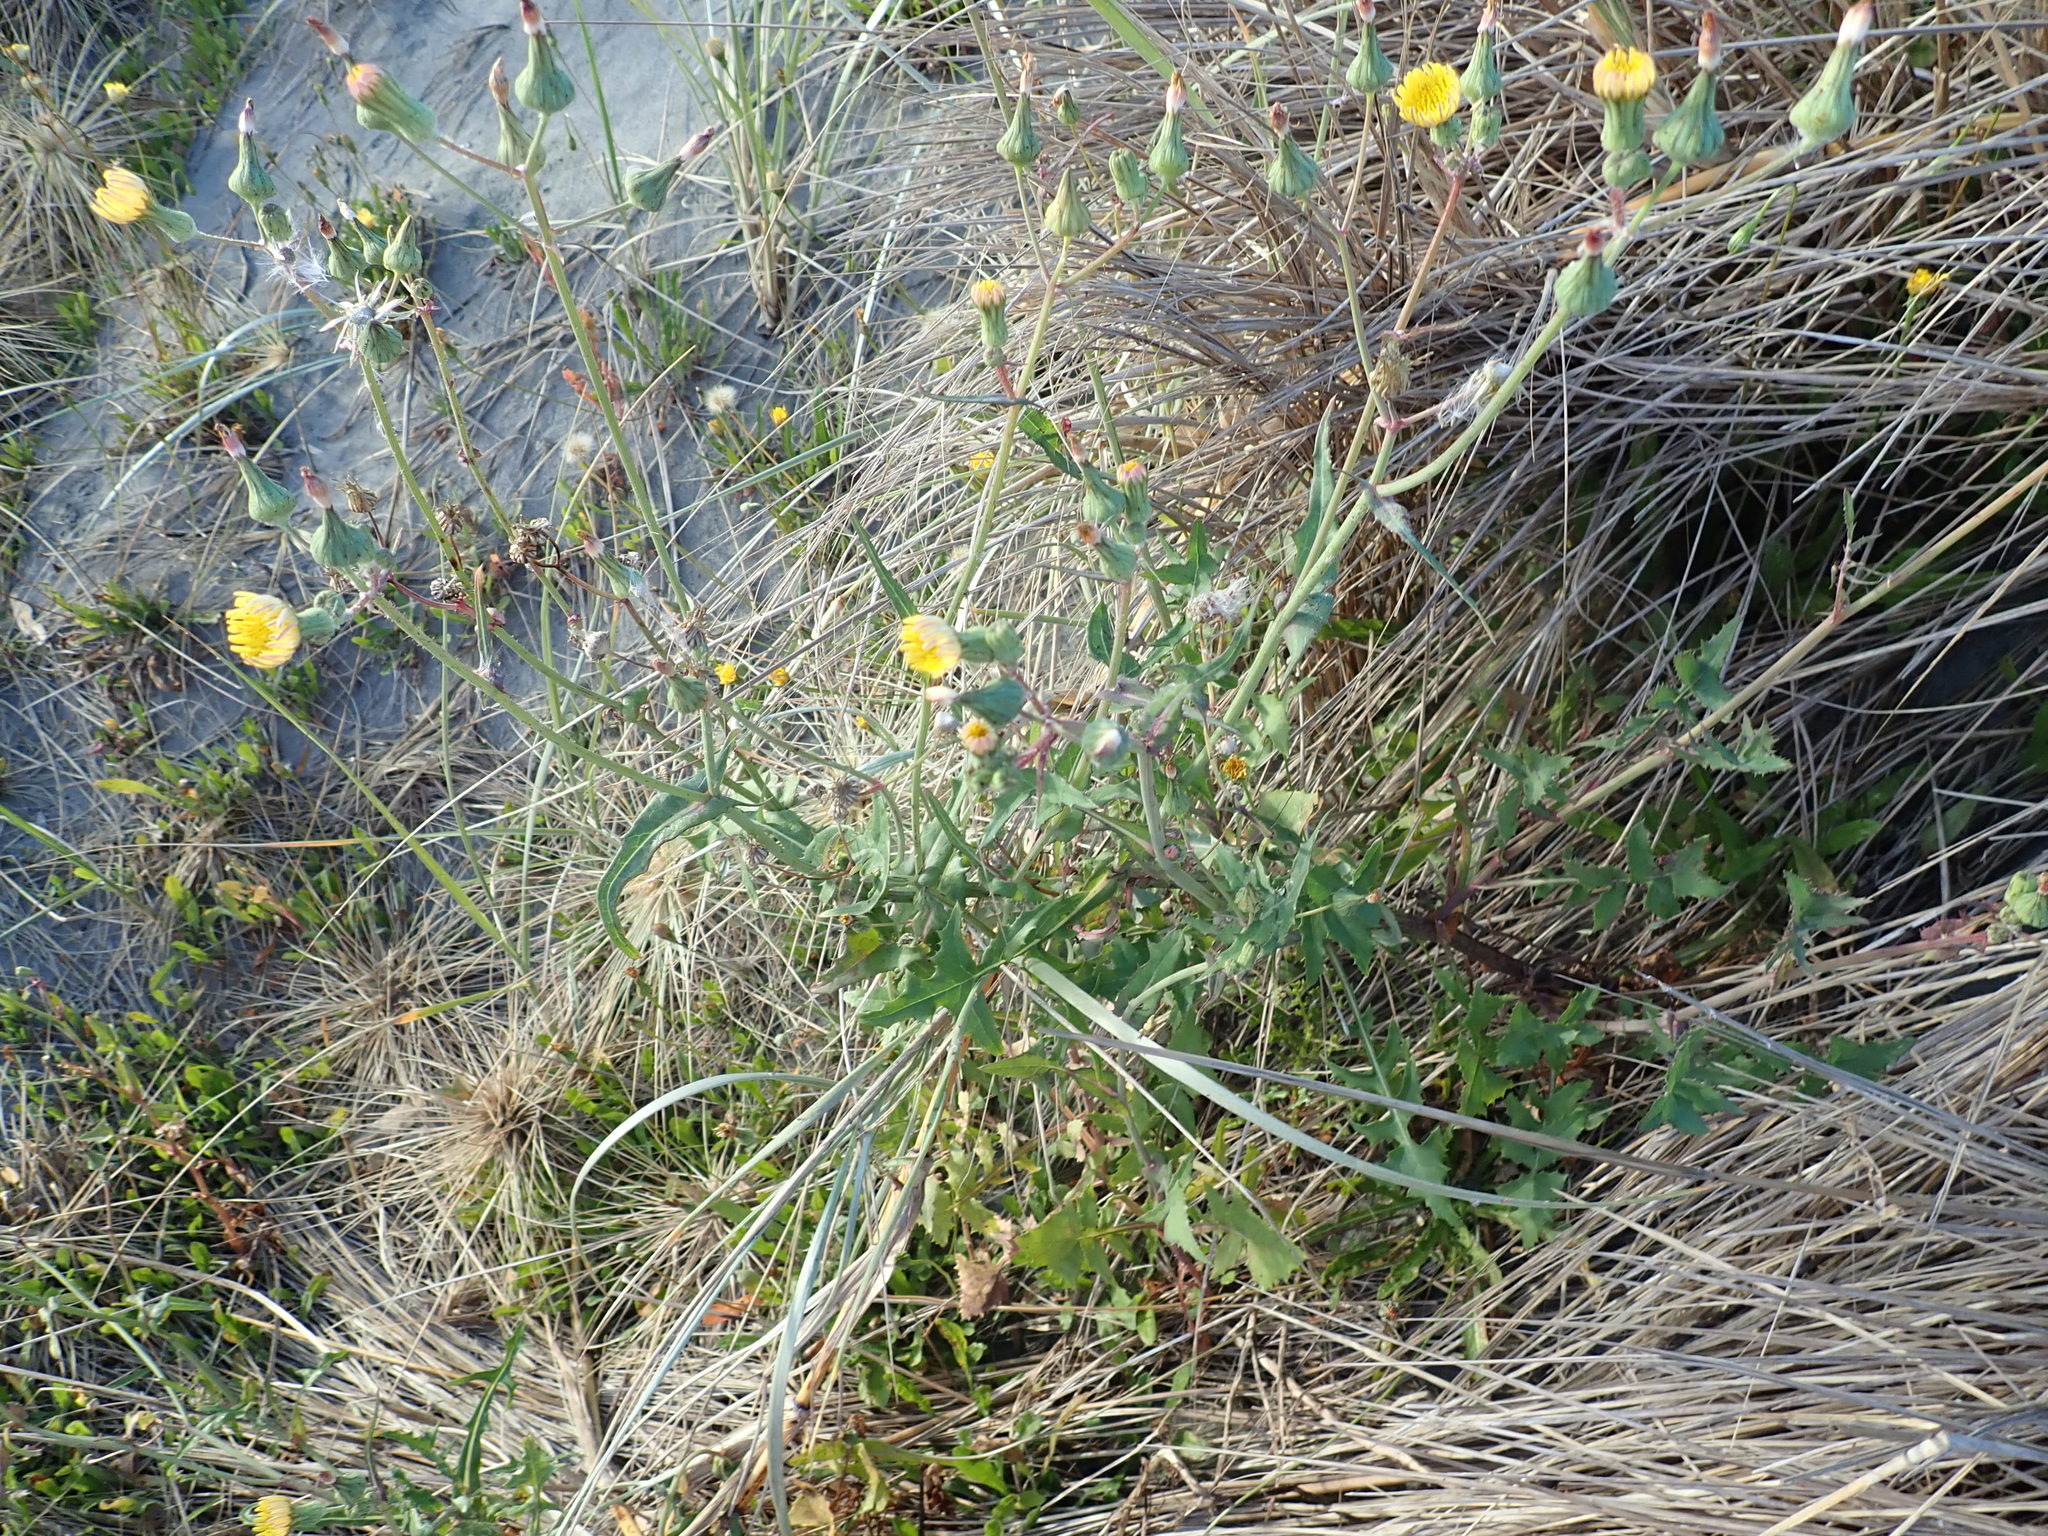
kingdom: Plantae
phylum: Tracheophyta
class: Magnoliopsida
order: Asterales
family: Asteraceae
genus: Sonchus
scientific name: Sonchus oleraceus
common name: Common sowthistle
